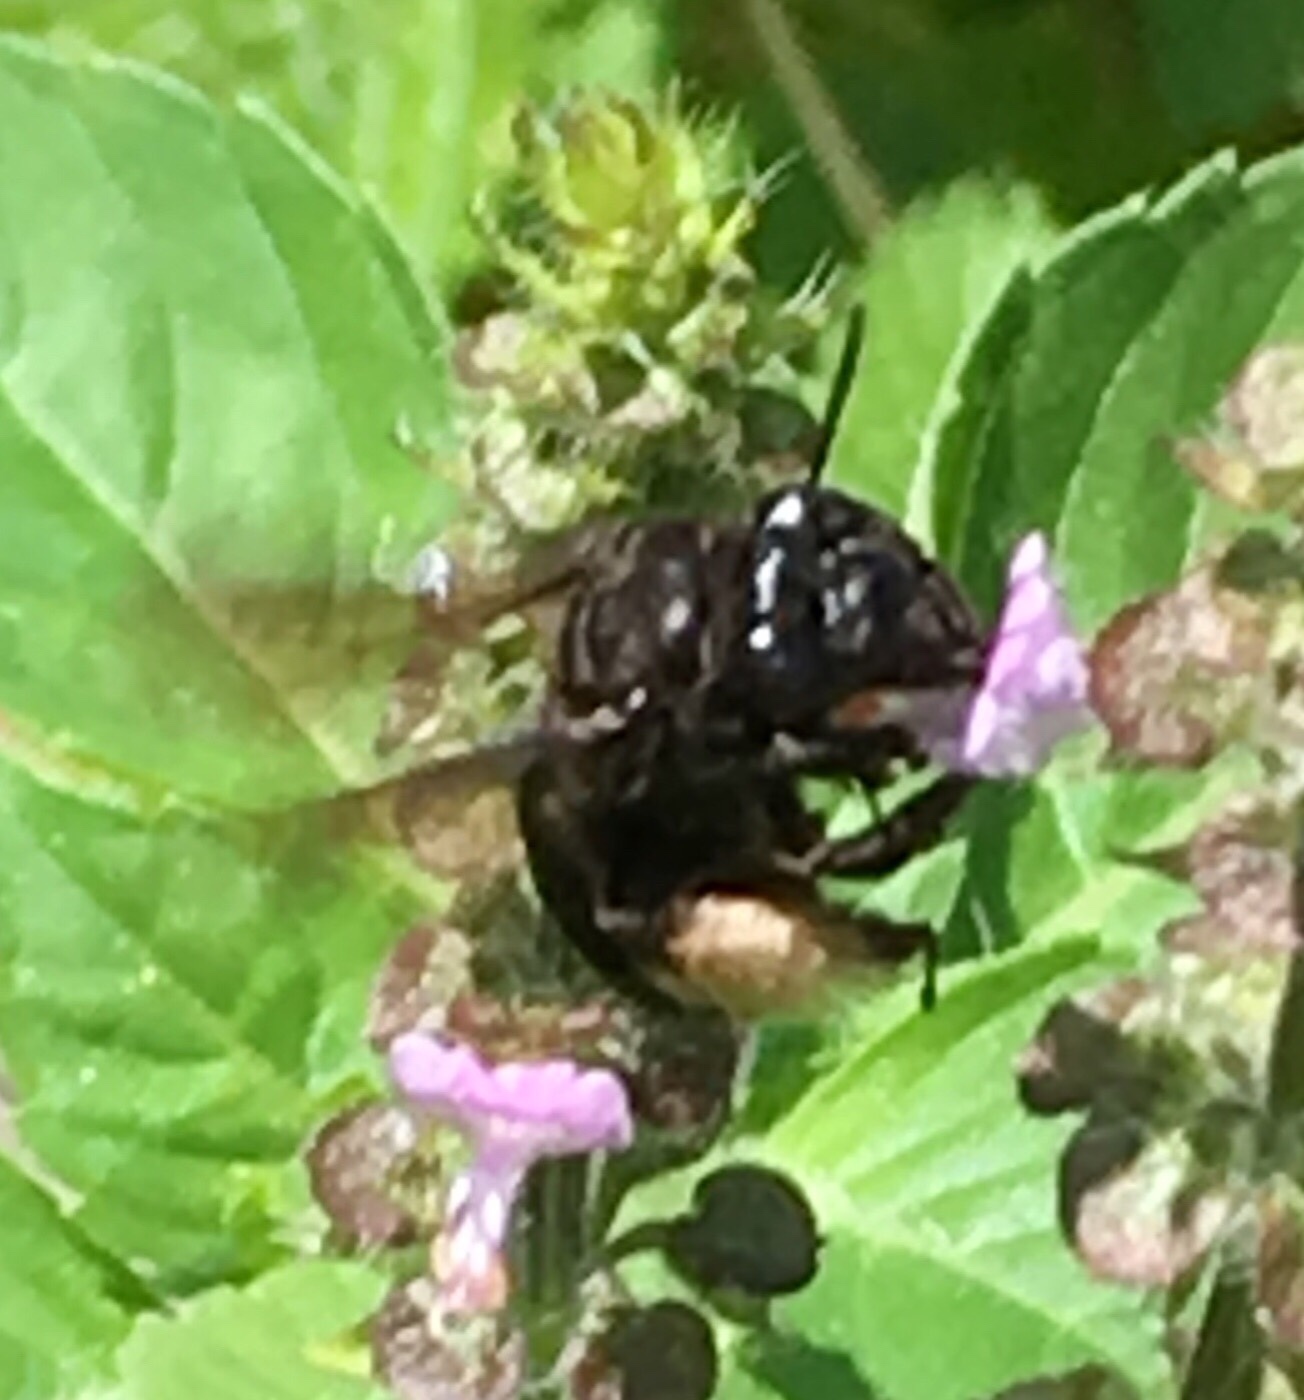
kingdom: Animalia
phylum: Arthropoda
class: Insecta
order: Hymenoptera
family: Apidae
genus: Melissodes
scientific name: Melissodes bimaculatus
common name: Two-spotted long-horned bee
